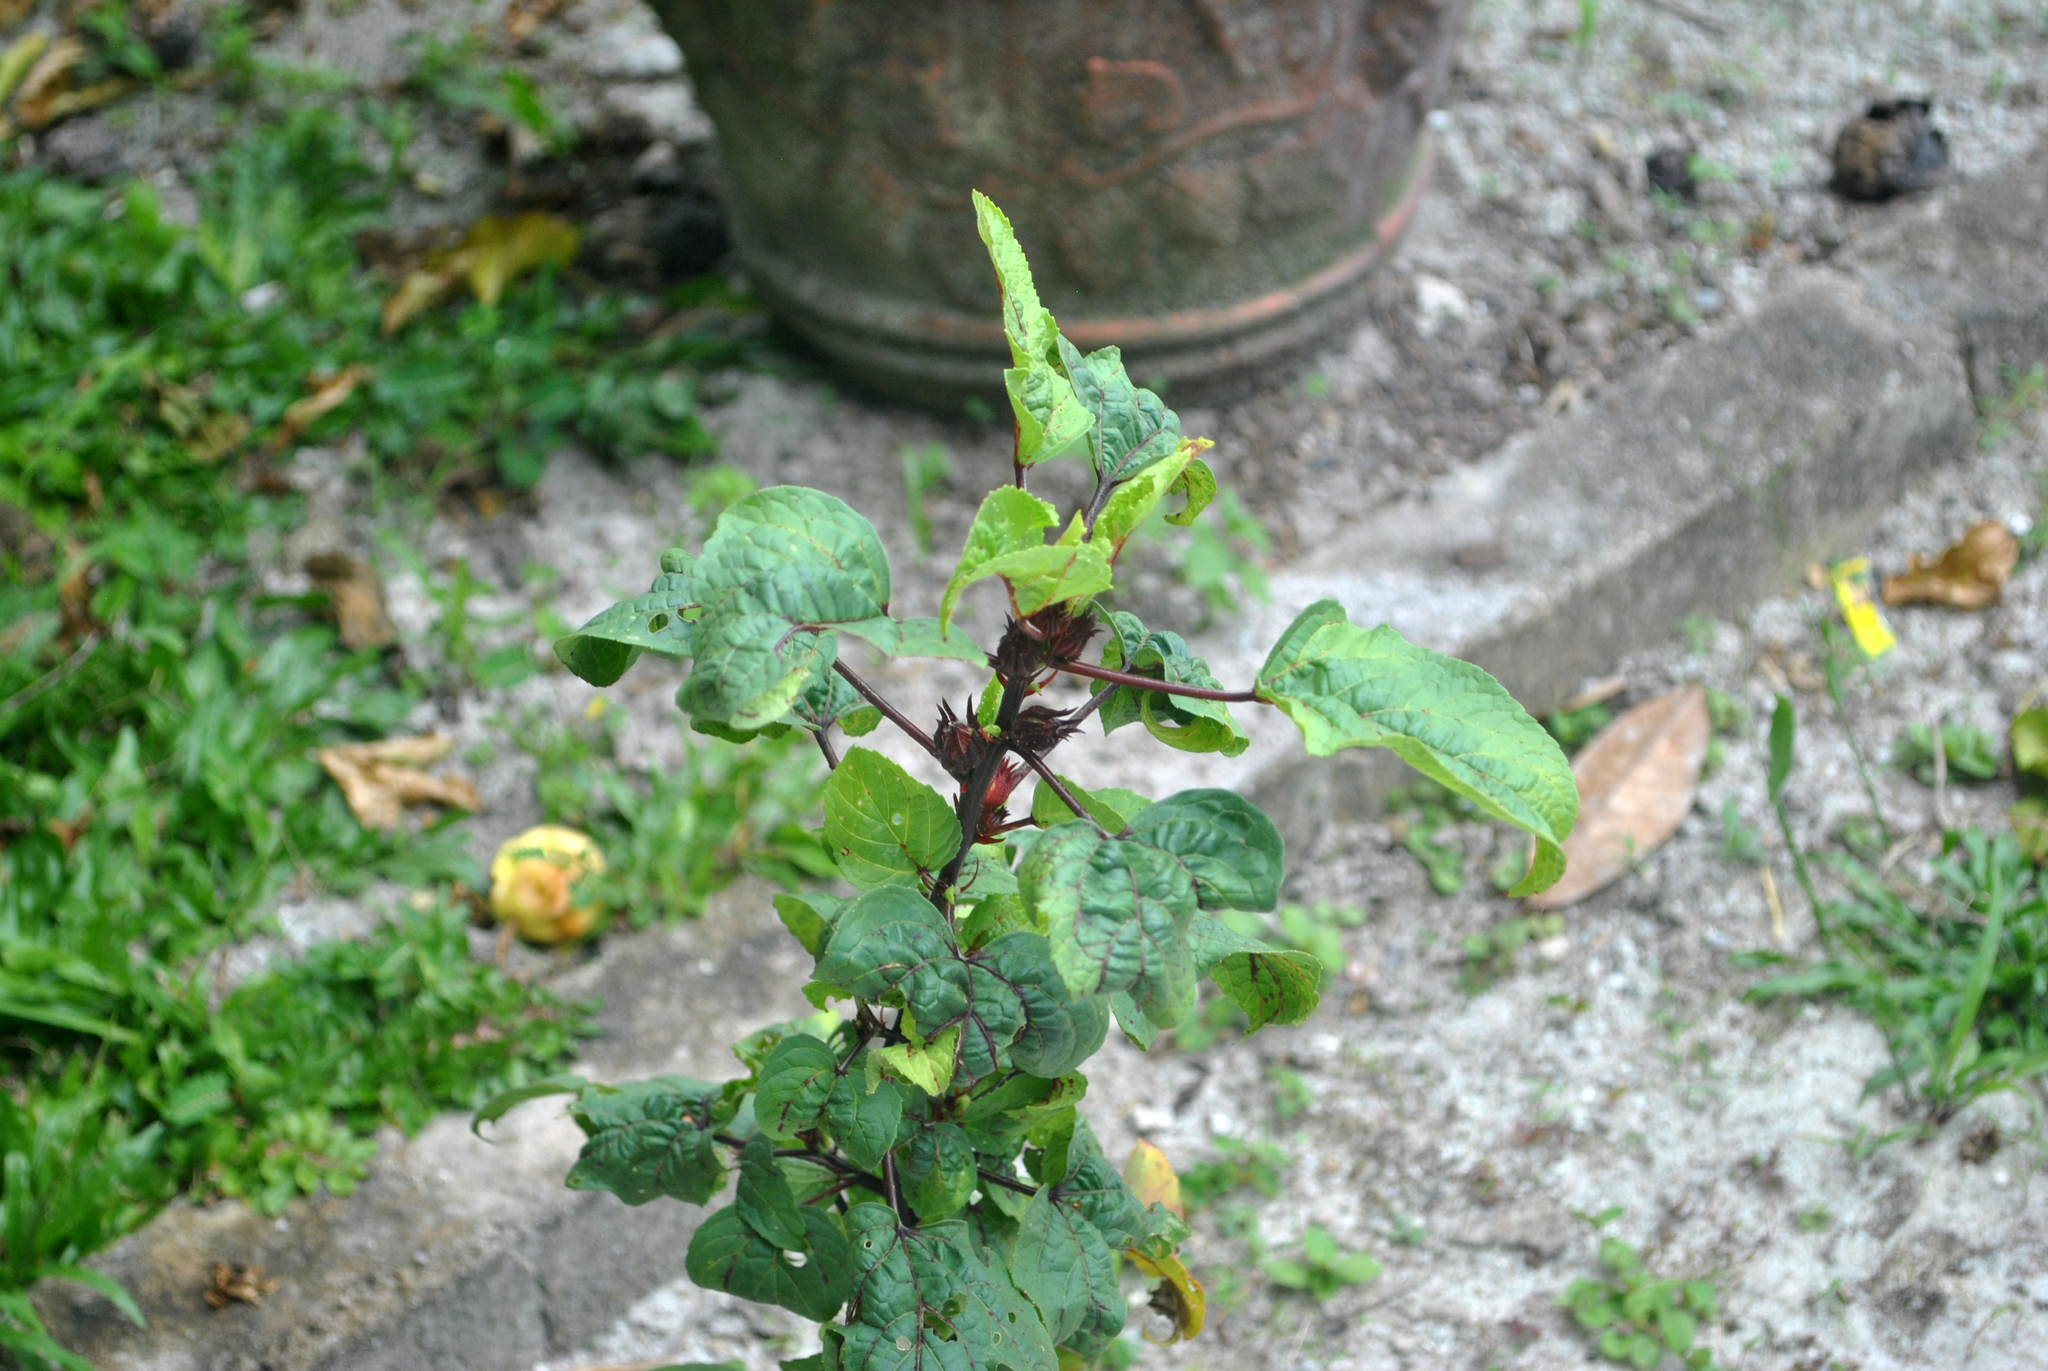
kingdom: Plantae
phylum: Tracheophyta
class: Magnoliopsida
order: Malvales
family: Malvaceae
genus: Hibiscus
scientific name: Hibiscus sabdariffa
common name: Roselle
